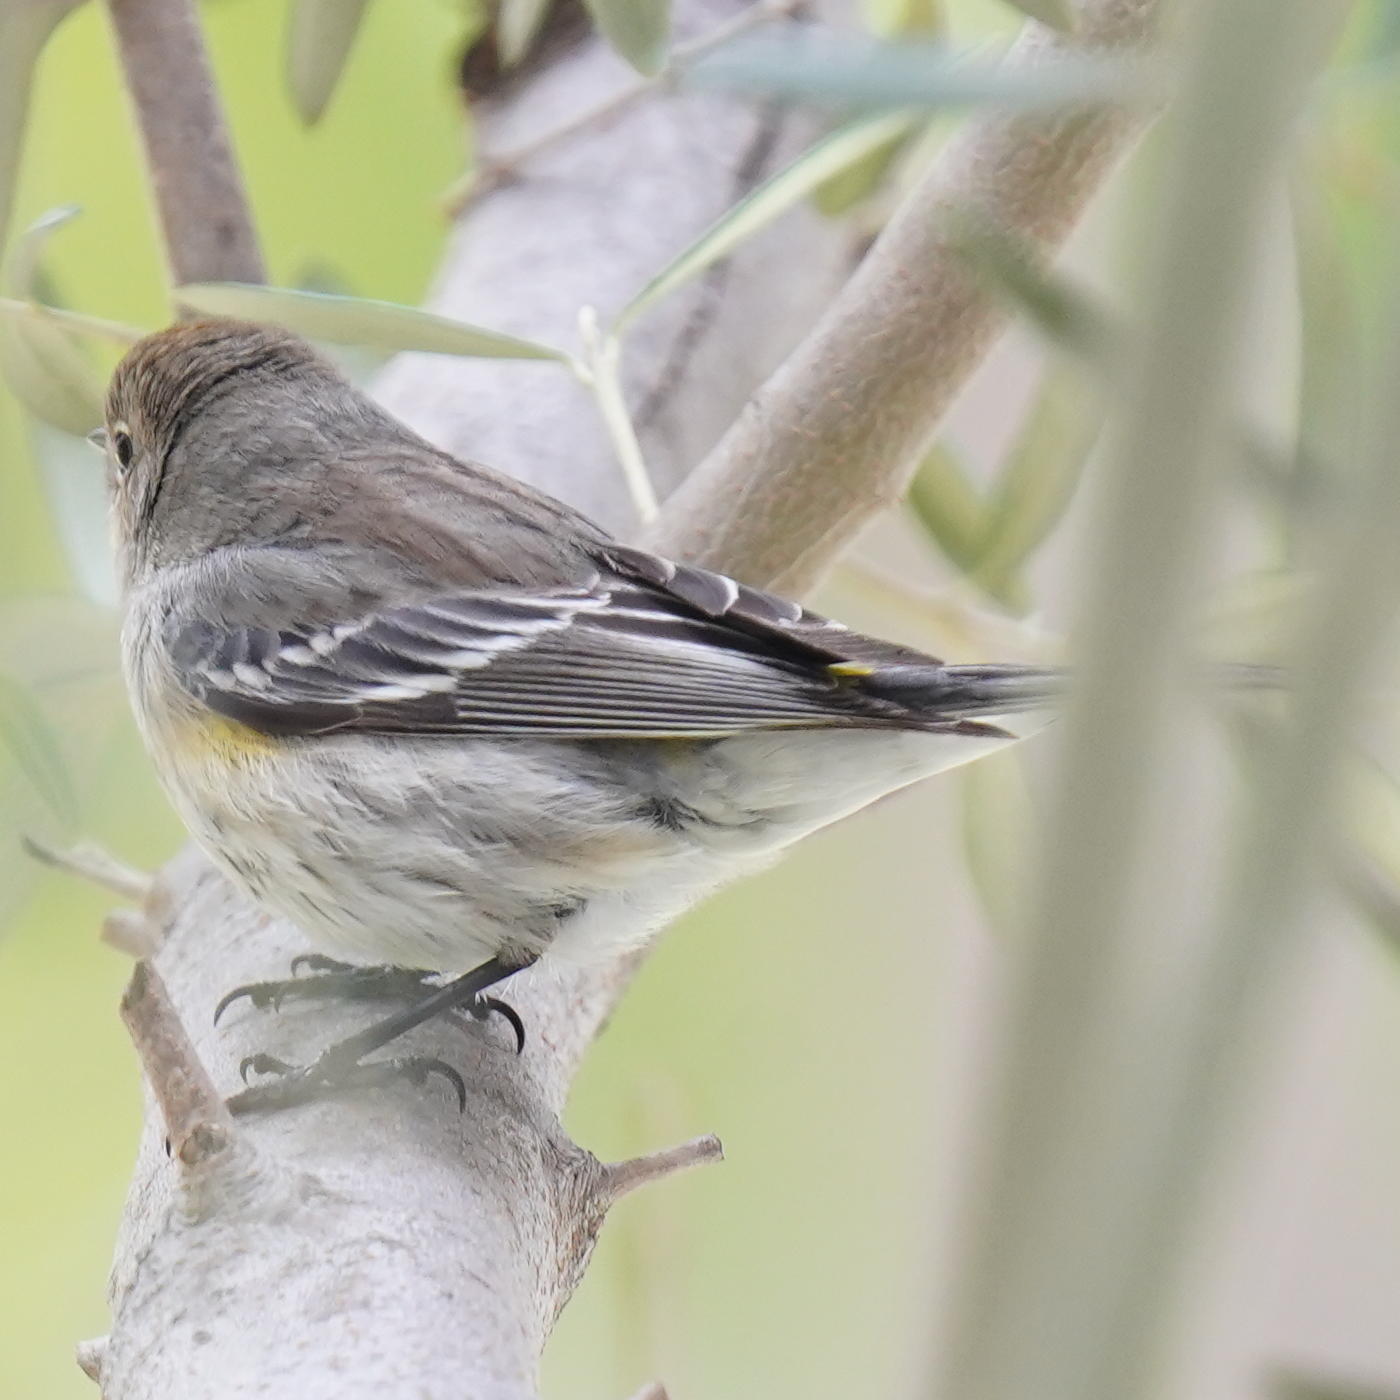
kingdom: Animalia
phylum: Chordata
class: Aves
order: Passeriformes
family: Parulidae
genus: Setophaga
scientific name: Setophaga coronata
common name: Myrtle warbler
